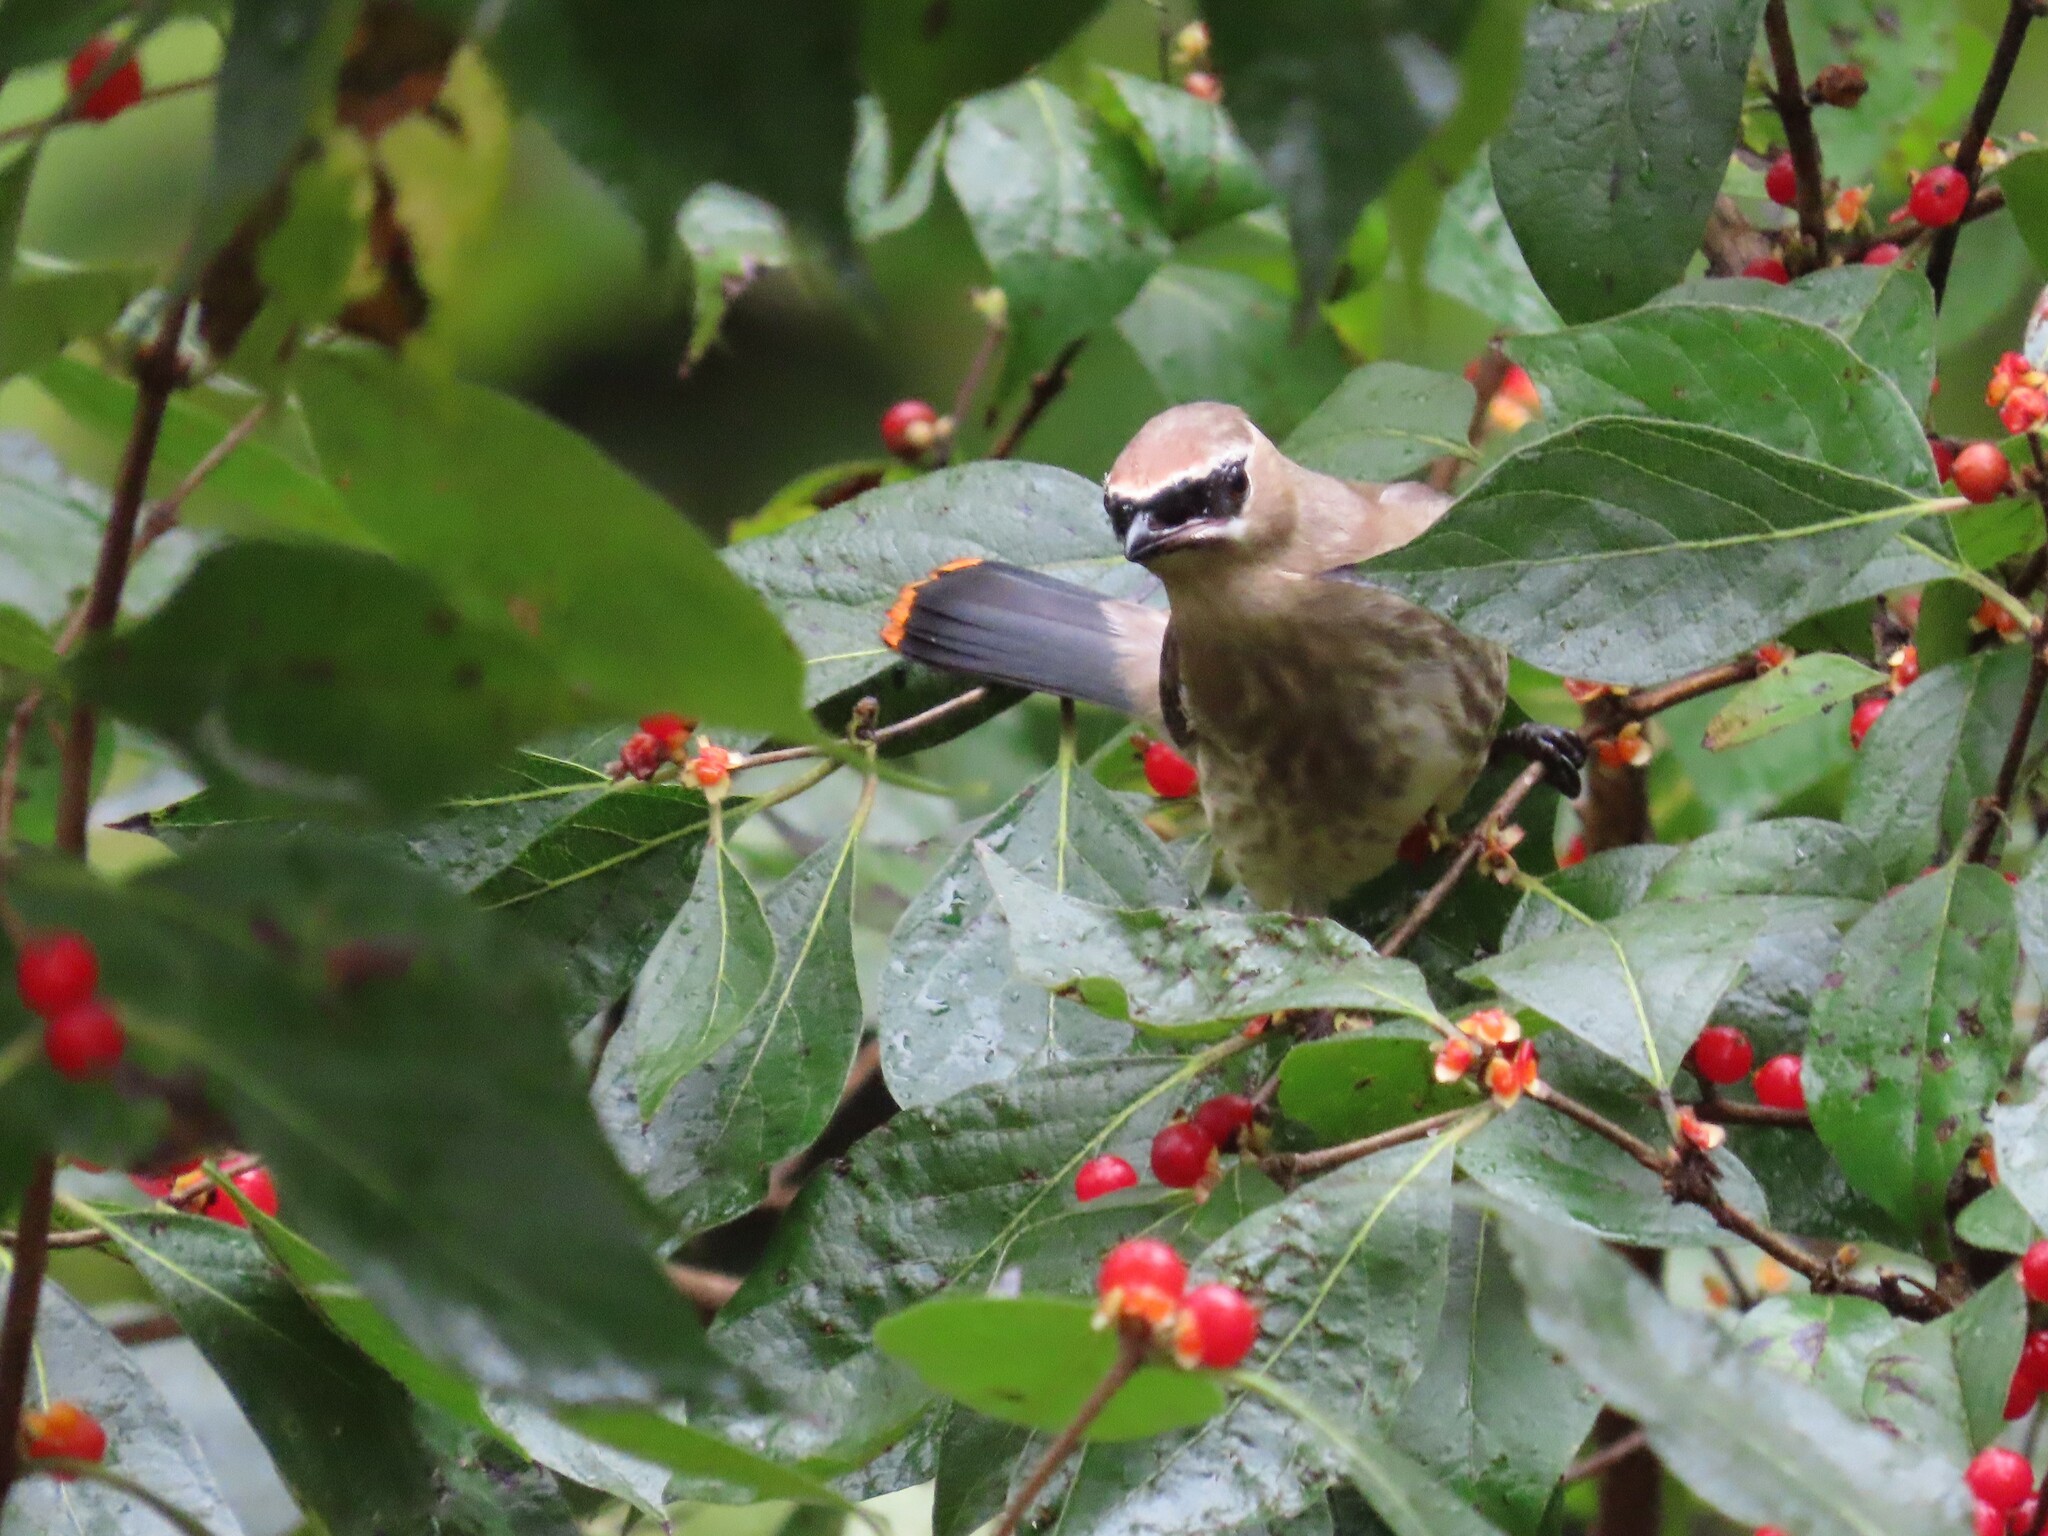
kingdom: Animalia
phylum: Chordata
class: Aves
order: Passeriformes
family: Bombycillidae
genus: Bombycilla
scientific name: Bombycilla cedrorum
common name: Cedar waxwing
